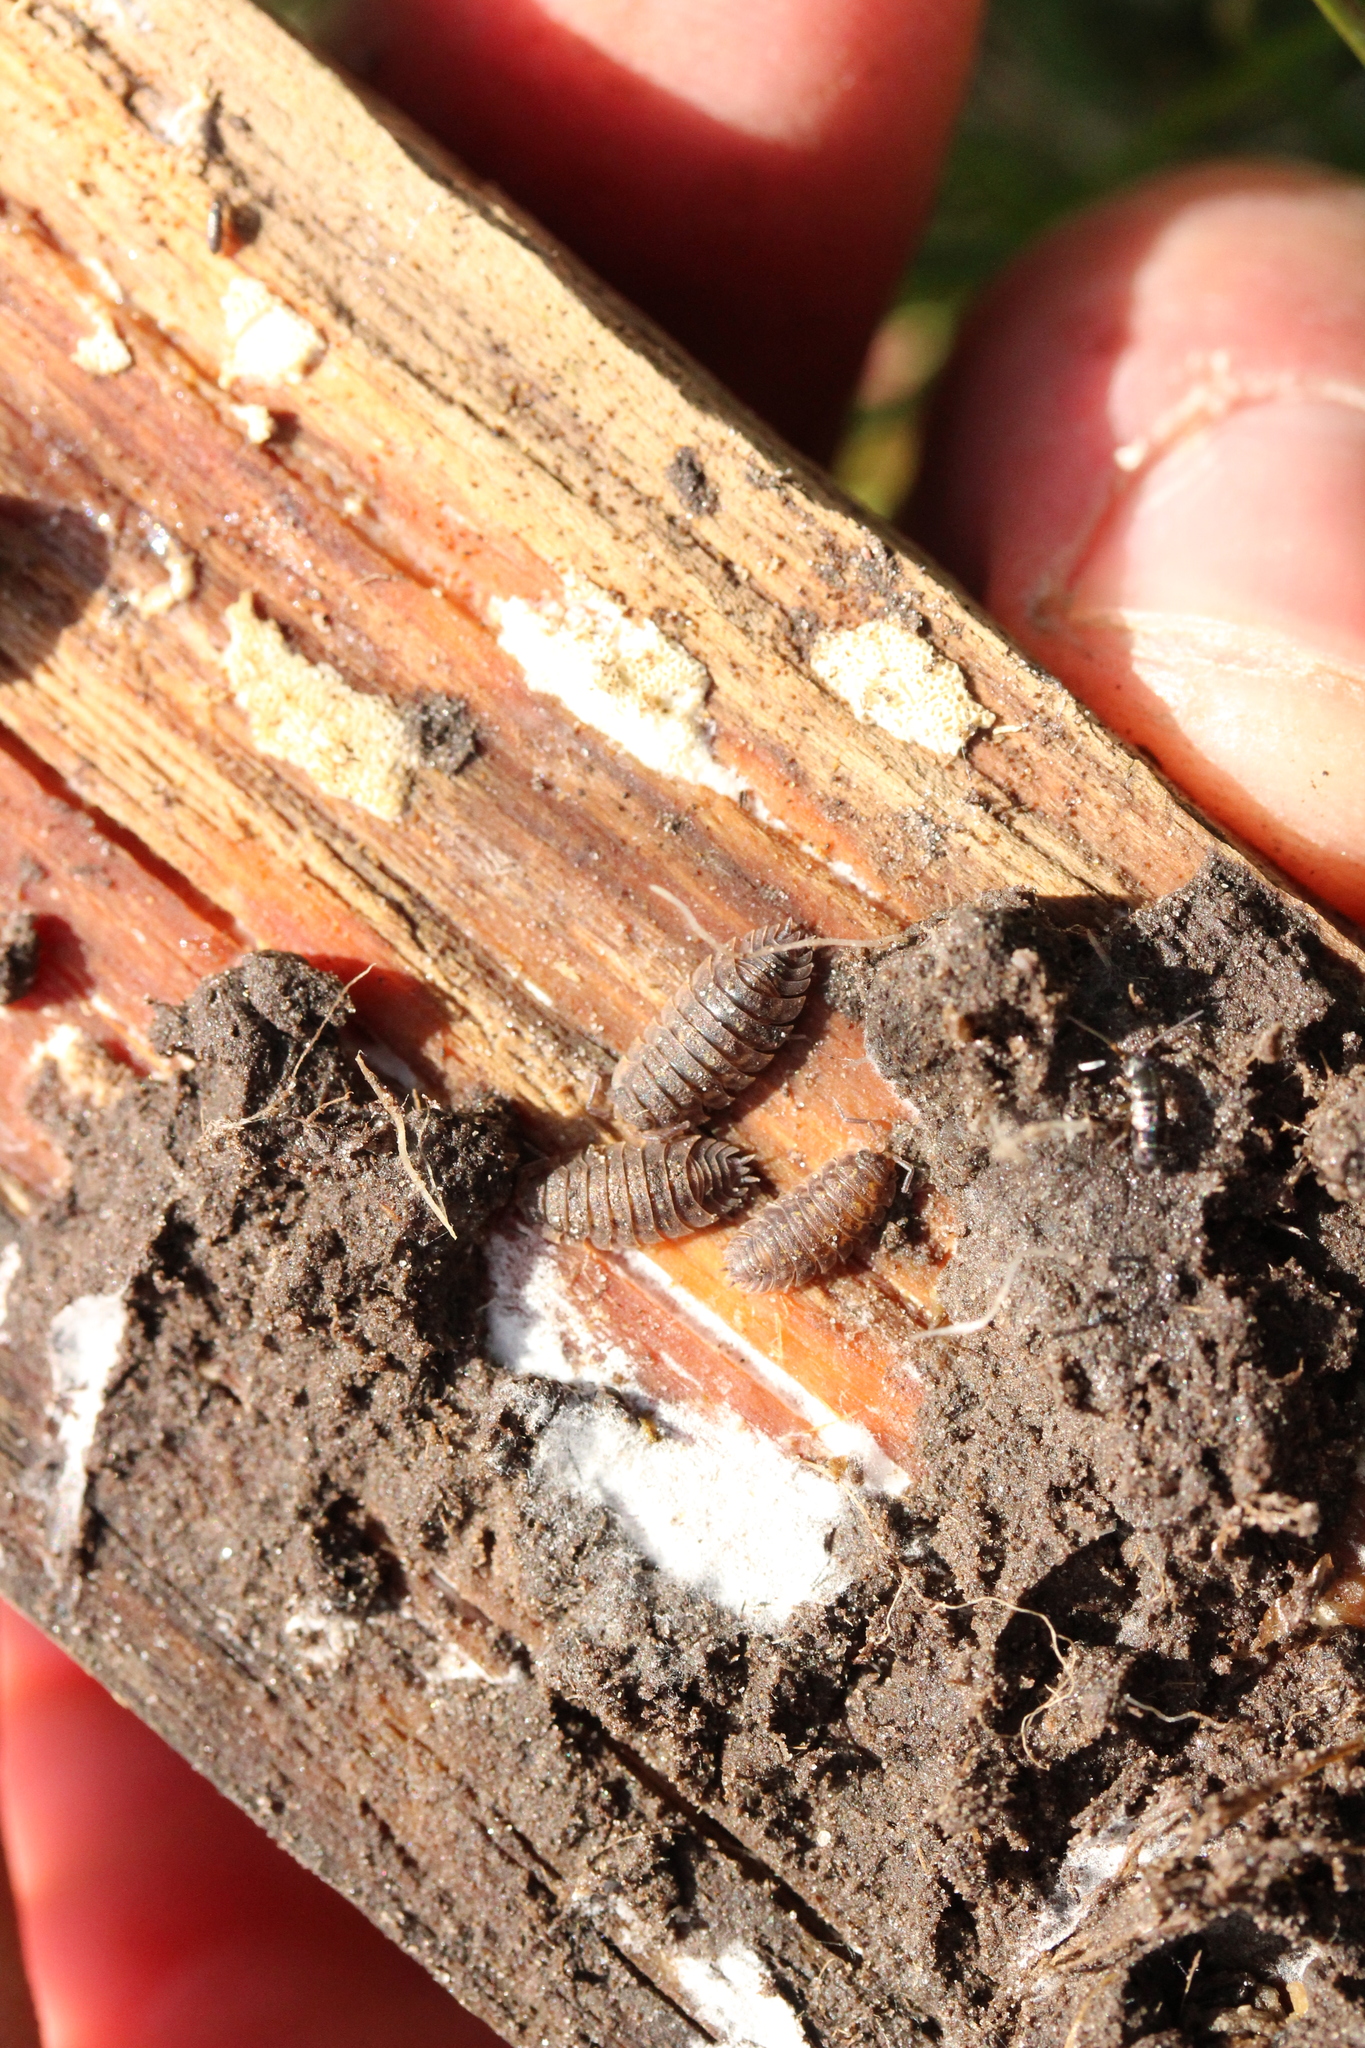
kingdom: Animalia
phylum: Arthropoda
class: Malacostraca
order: Isopoda
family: Oniscidae
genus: Oniscus
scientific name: Oniscus asellus
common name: Common shiny woodlouse
